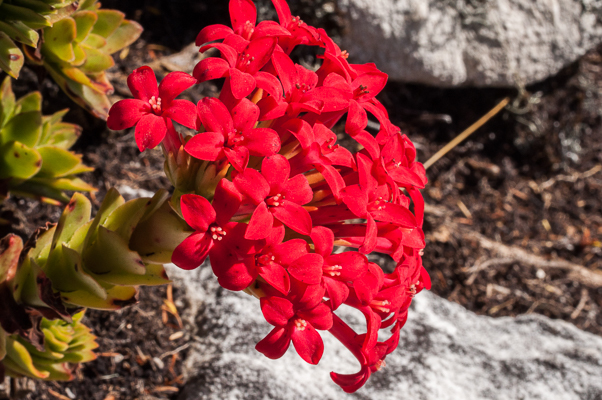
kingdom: Plantae
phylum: Tracheophyta
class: Magnoliopsida
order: Saxifragales
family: Crassulaceae
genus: Crassula
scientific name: Crassula coccinea
